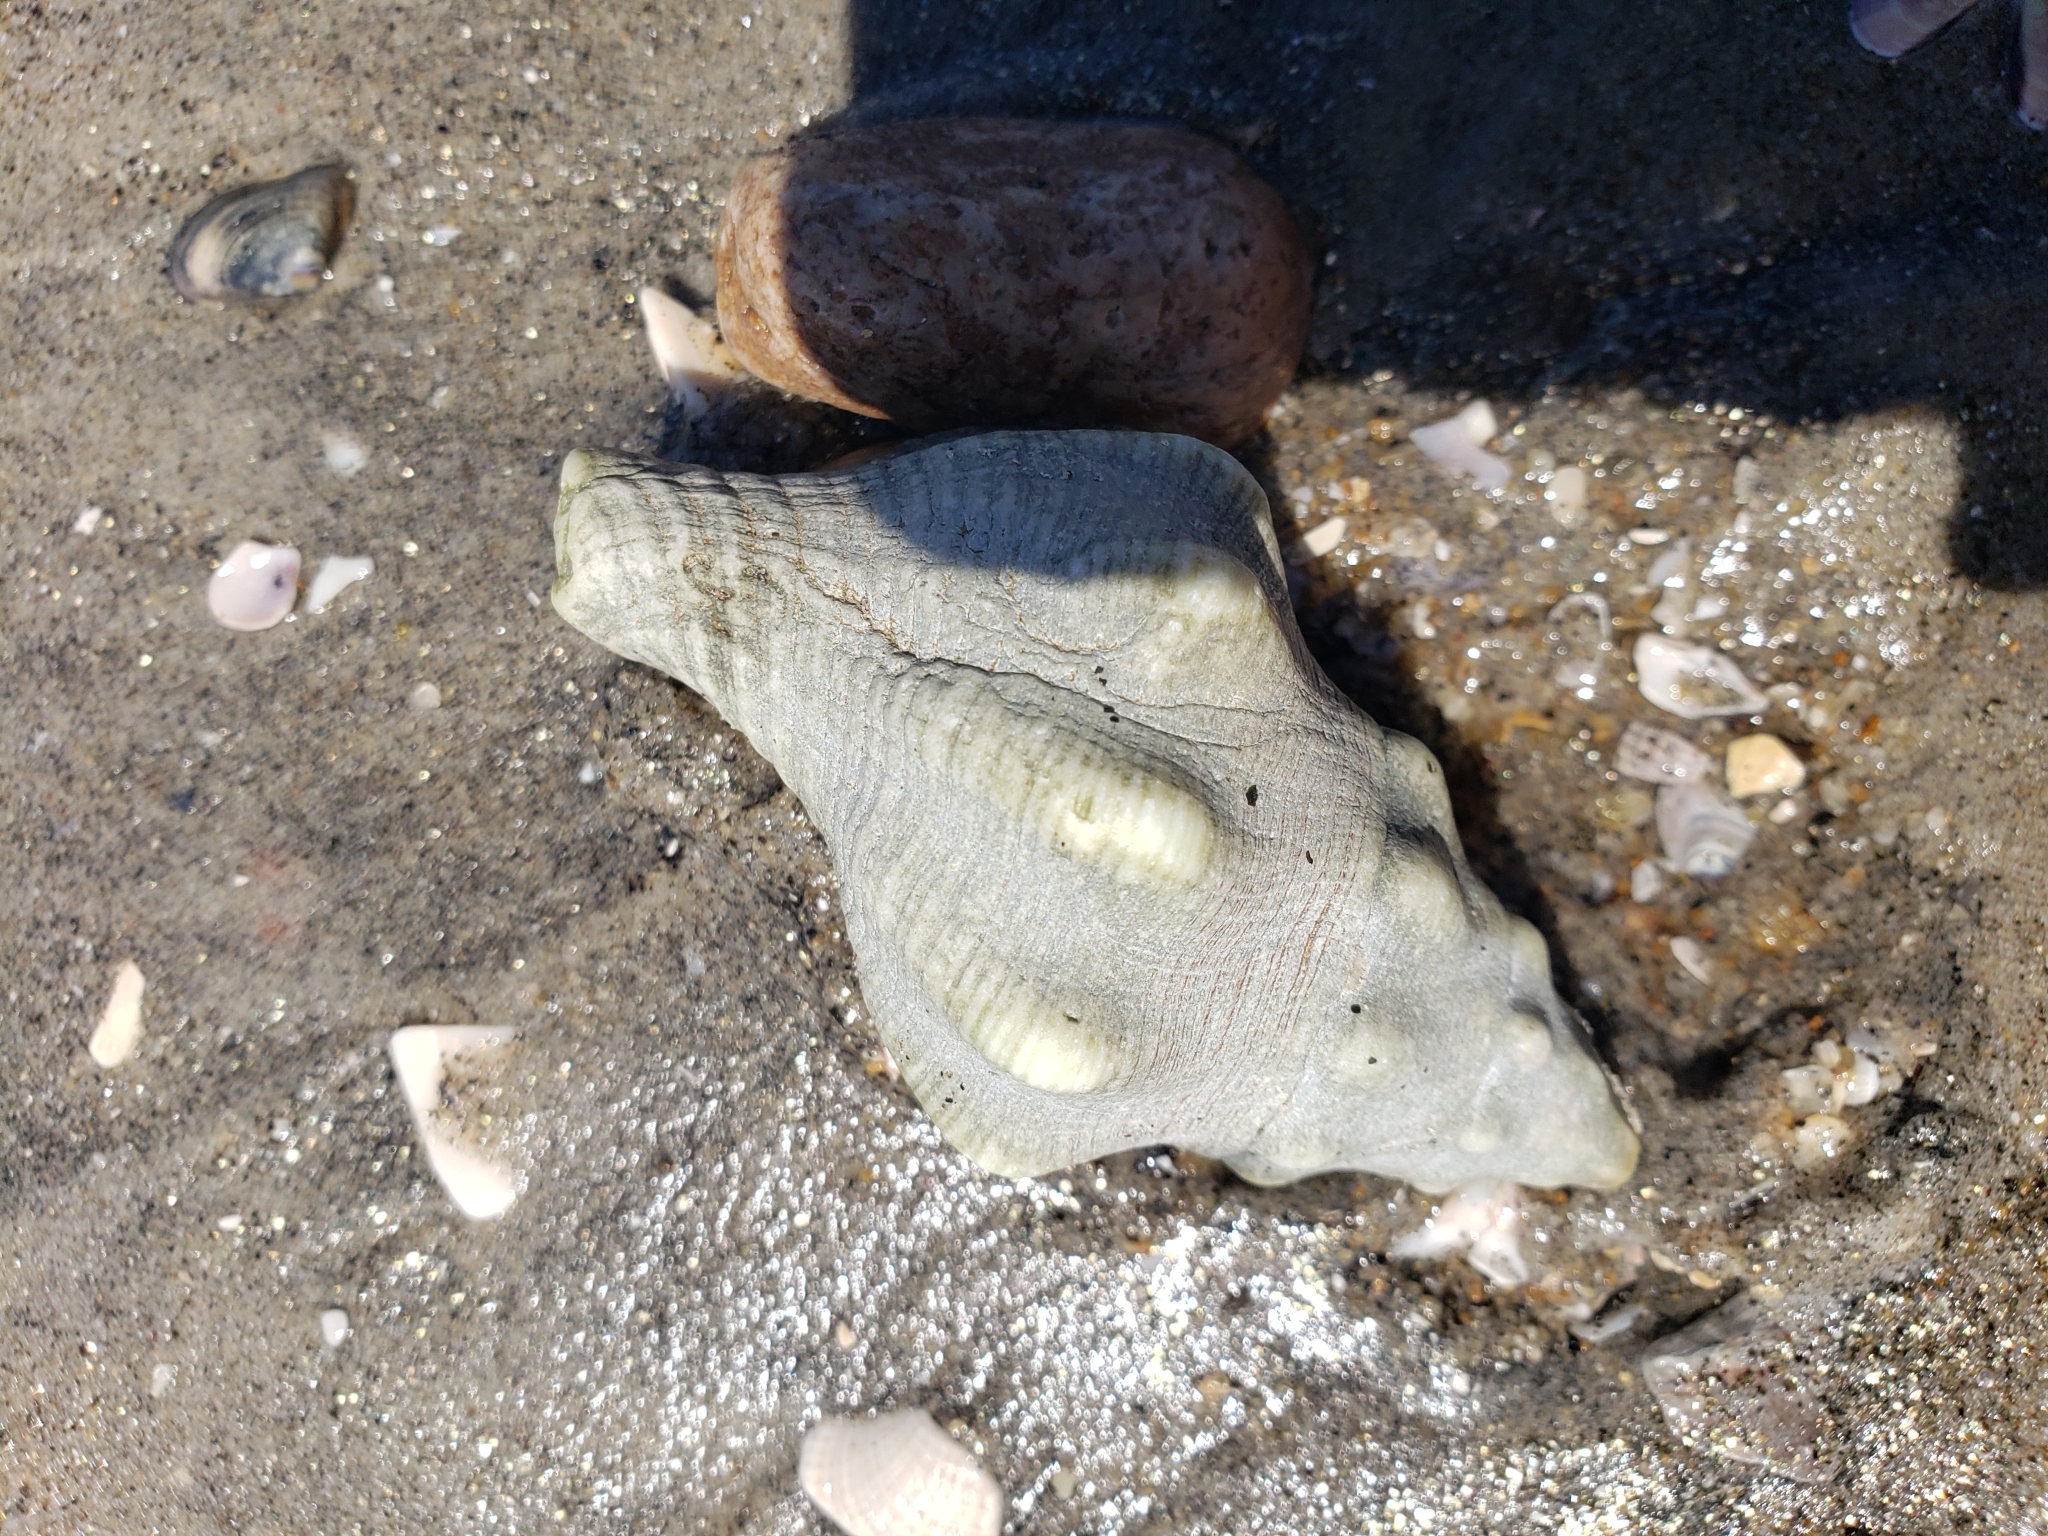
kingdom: Animalia
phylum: Mollusca
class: Gastropoda
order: Neogastropoda
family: Austrosiphonidae
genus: Kelletia
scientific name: Kelletia kelletii
